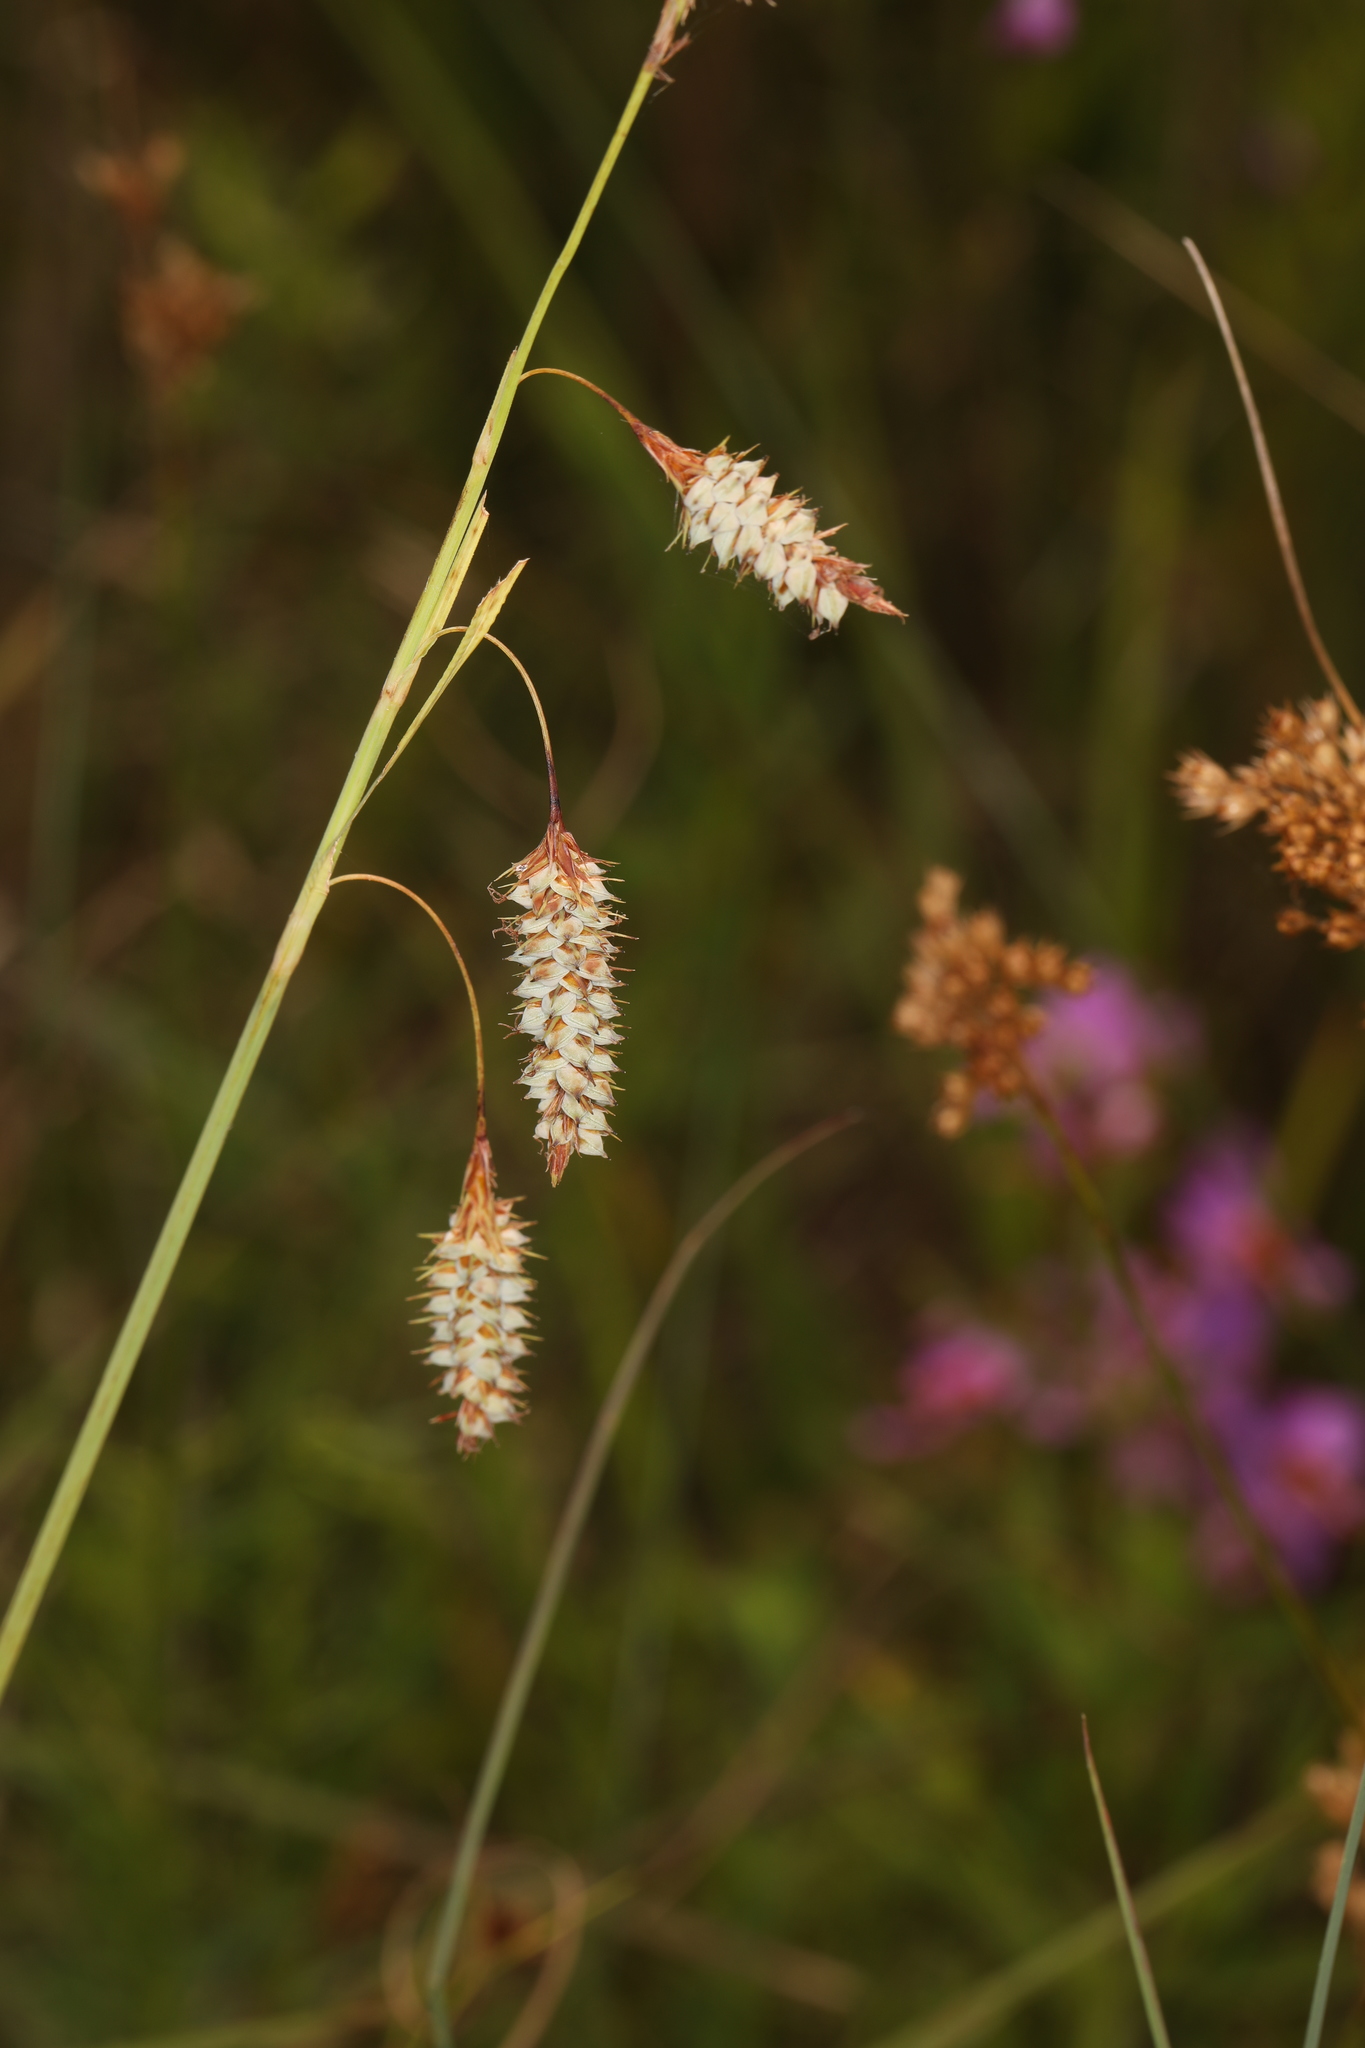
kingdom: Plantae
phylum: Tracheophyta
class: Liliopsida
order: Poales
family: Cyperaceae
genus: Carex
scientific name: Carex glaucescens
